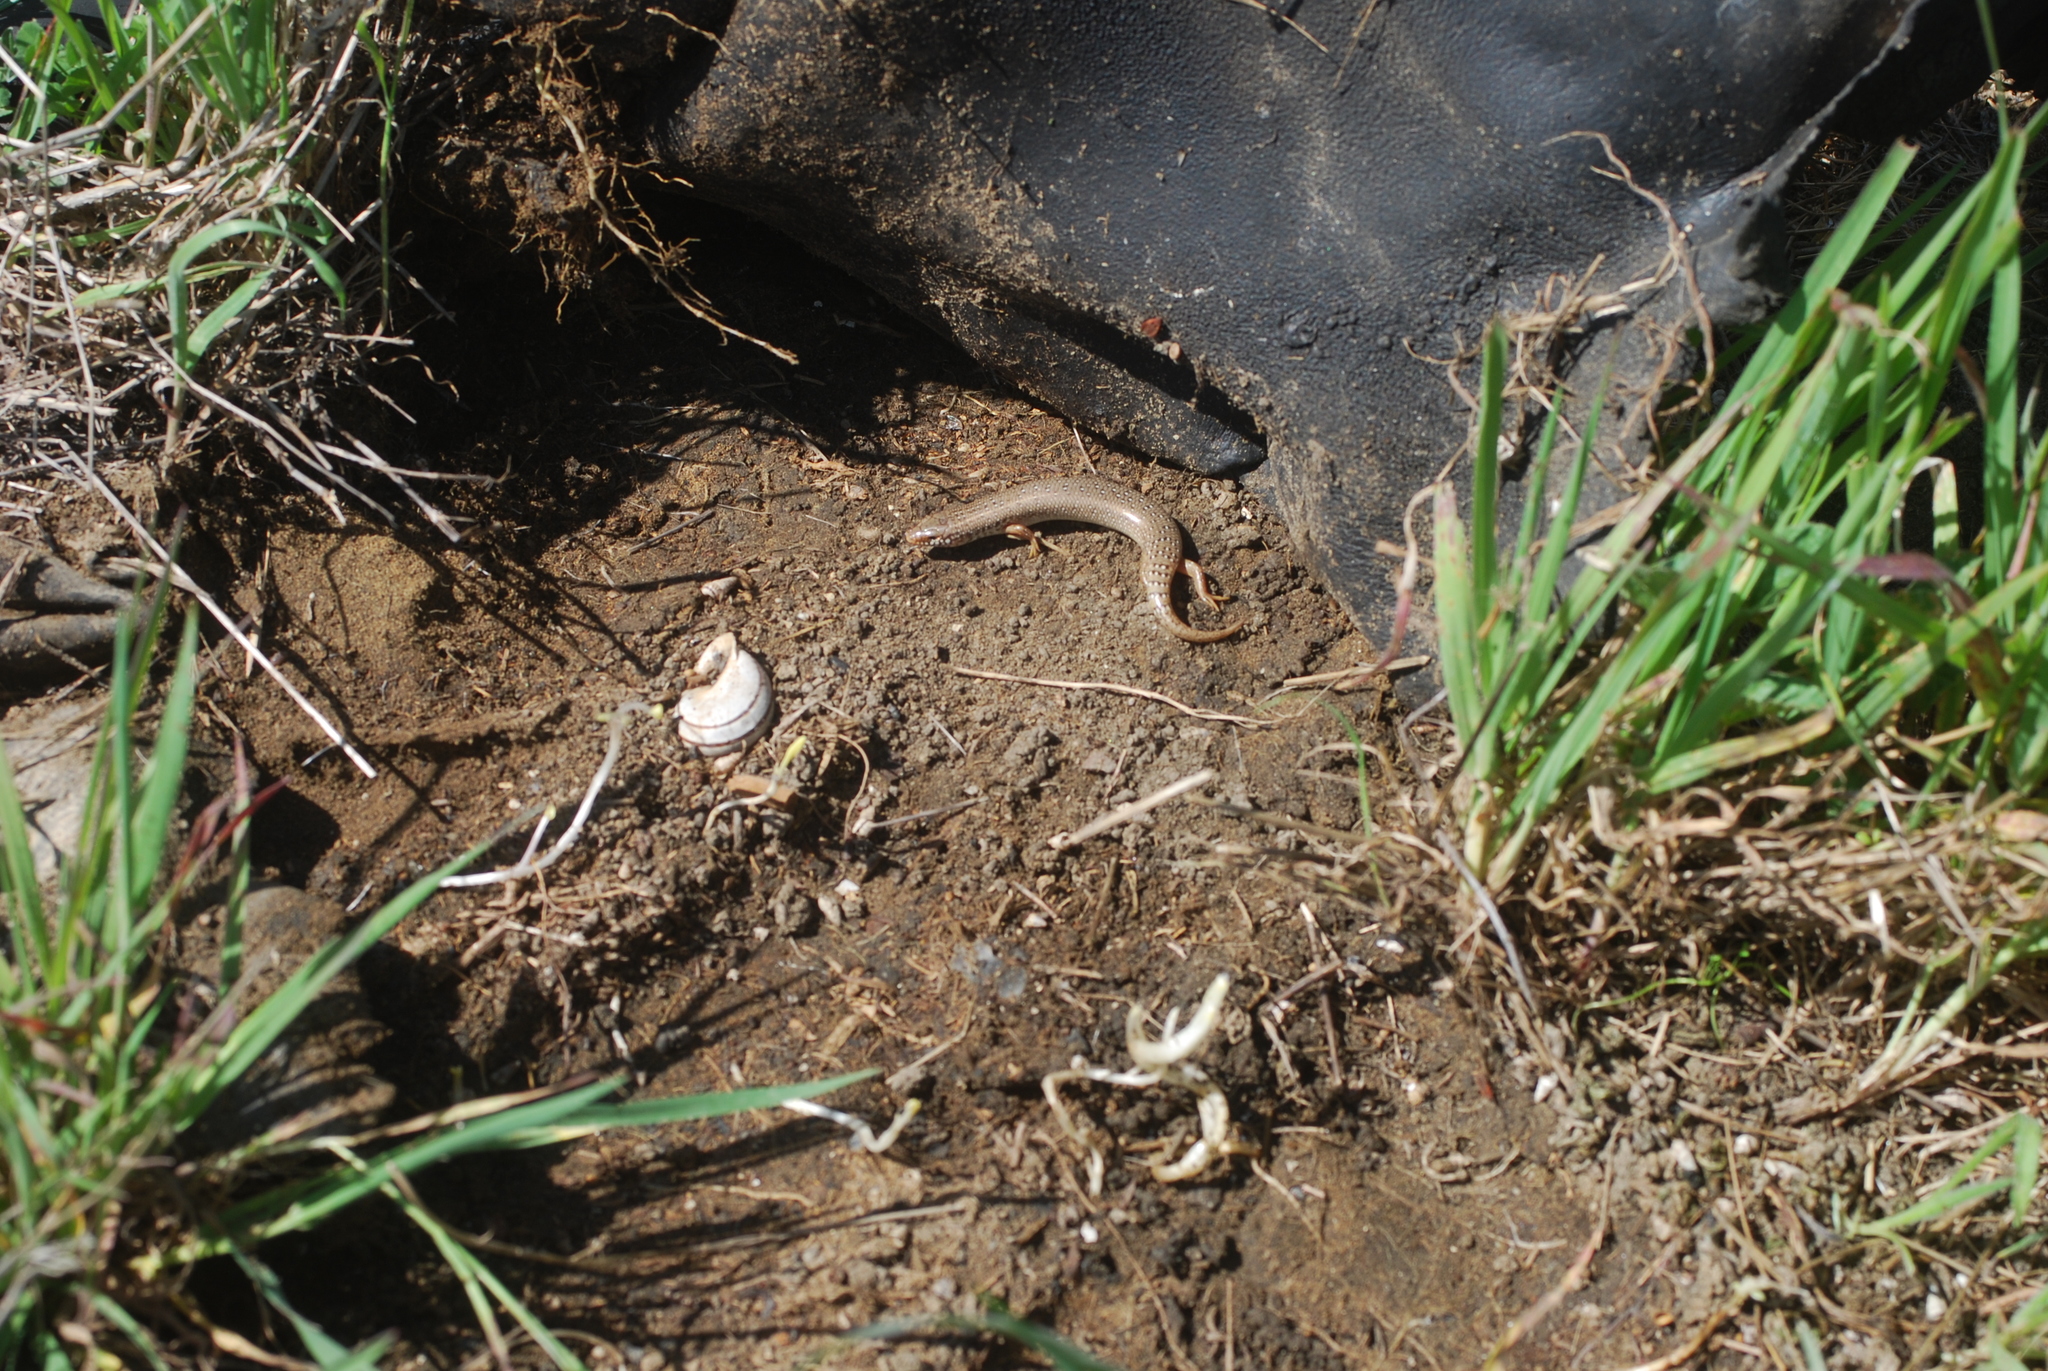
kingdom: Animalia
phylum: Chordata
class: Squamata
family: Scincidae
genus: Chalcides
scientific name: Chalcides ocellatus
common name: Ocellated skink
